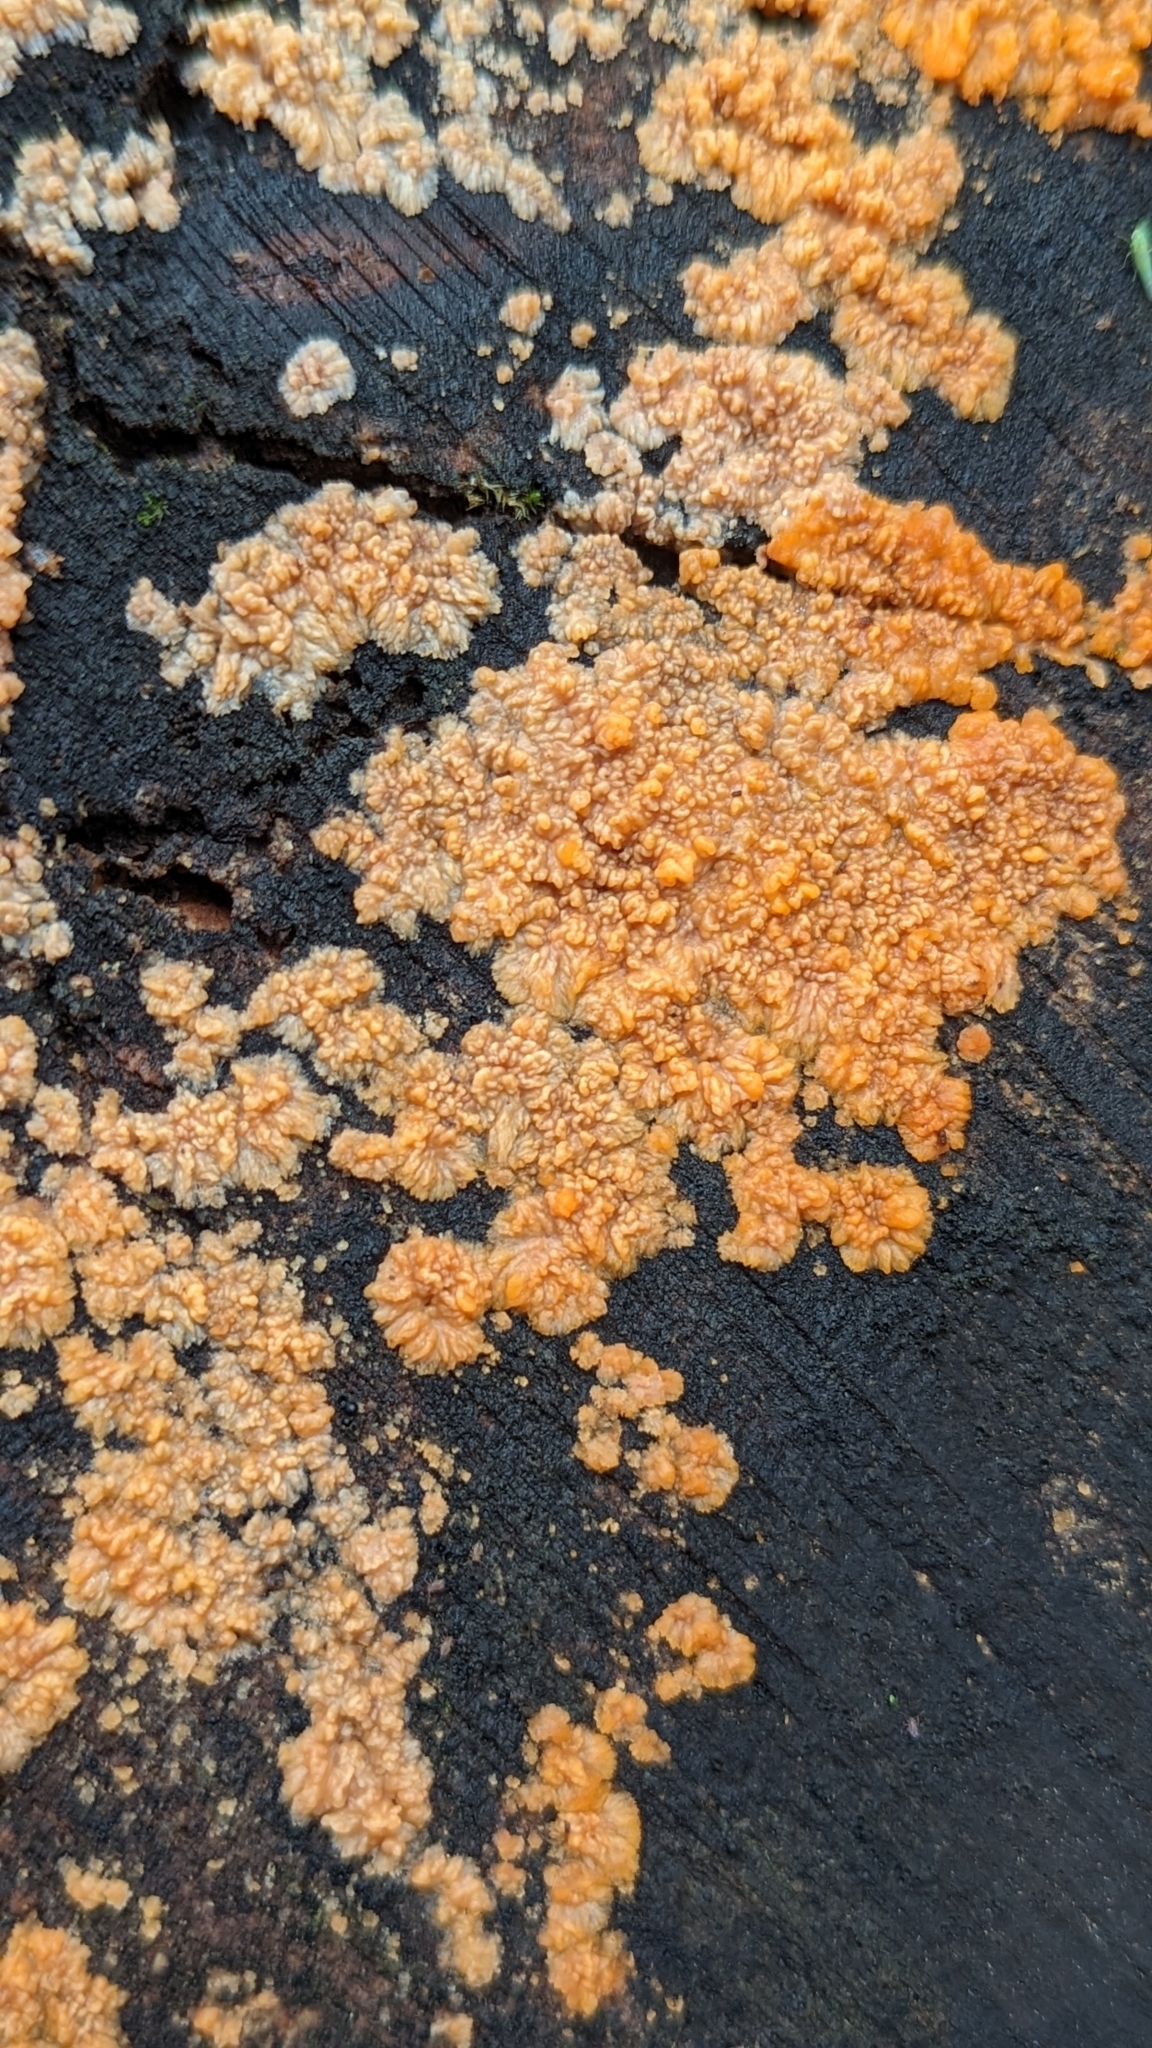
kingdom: Fungi
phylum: Basidiomycota
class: Agaricomycetes
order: Polyporales
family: Meruliaceae
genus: Phlebia
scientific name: Phlebia radiata
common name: Wrinkled crust
